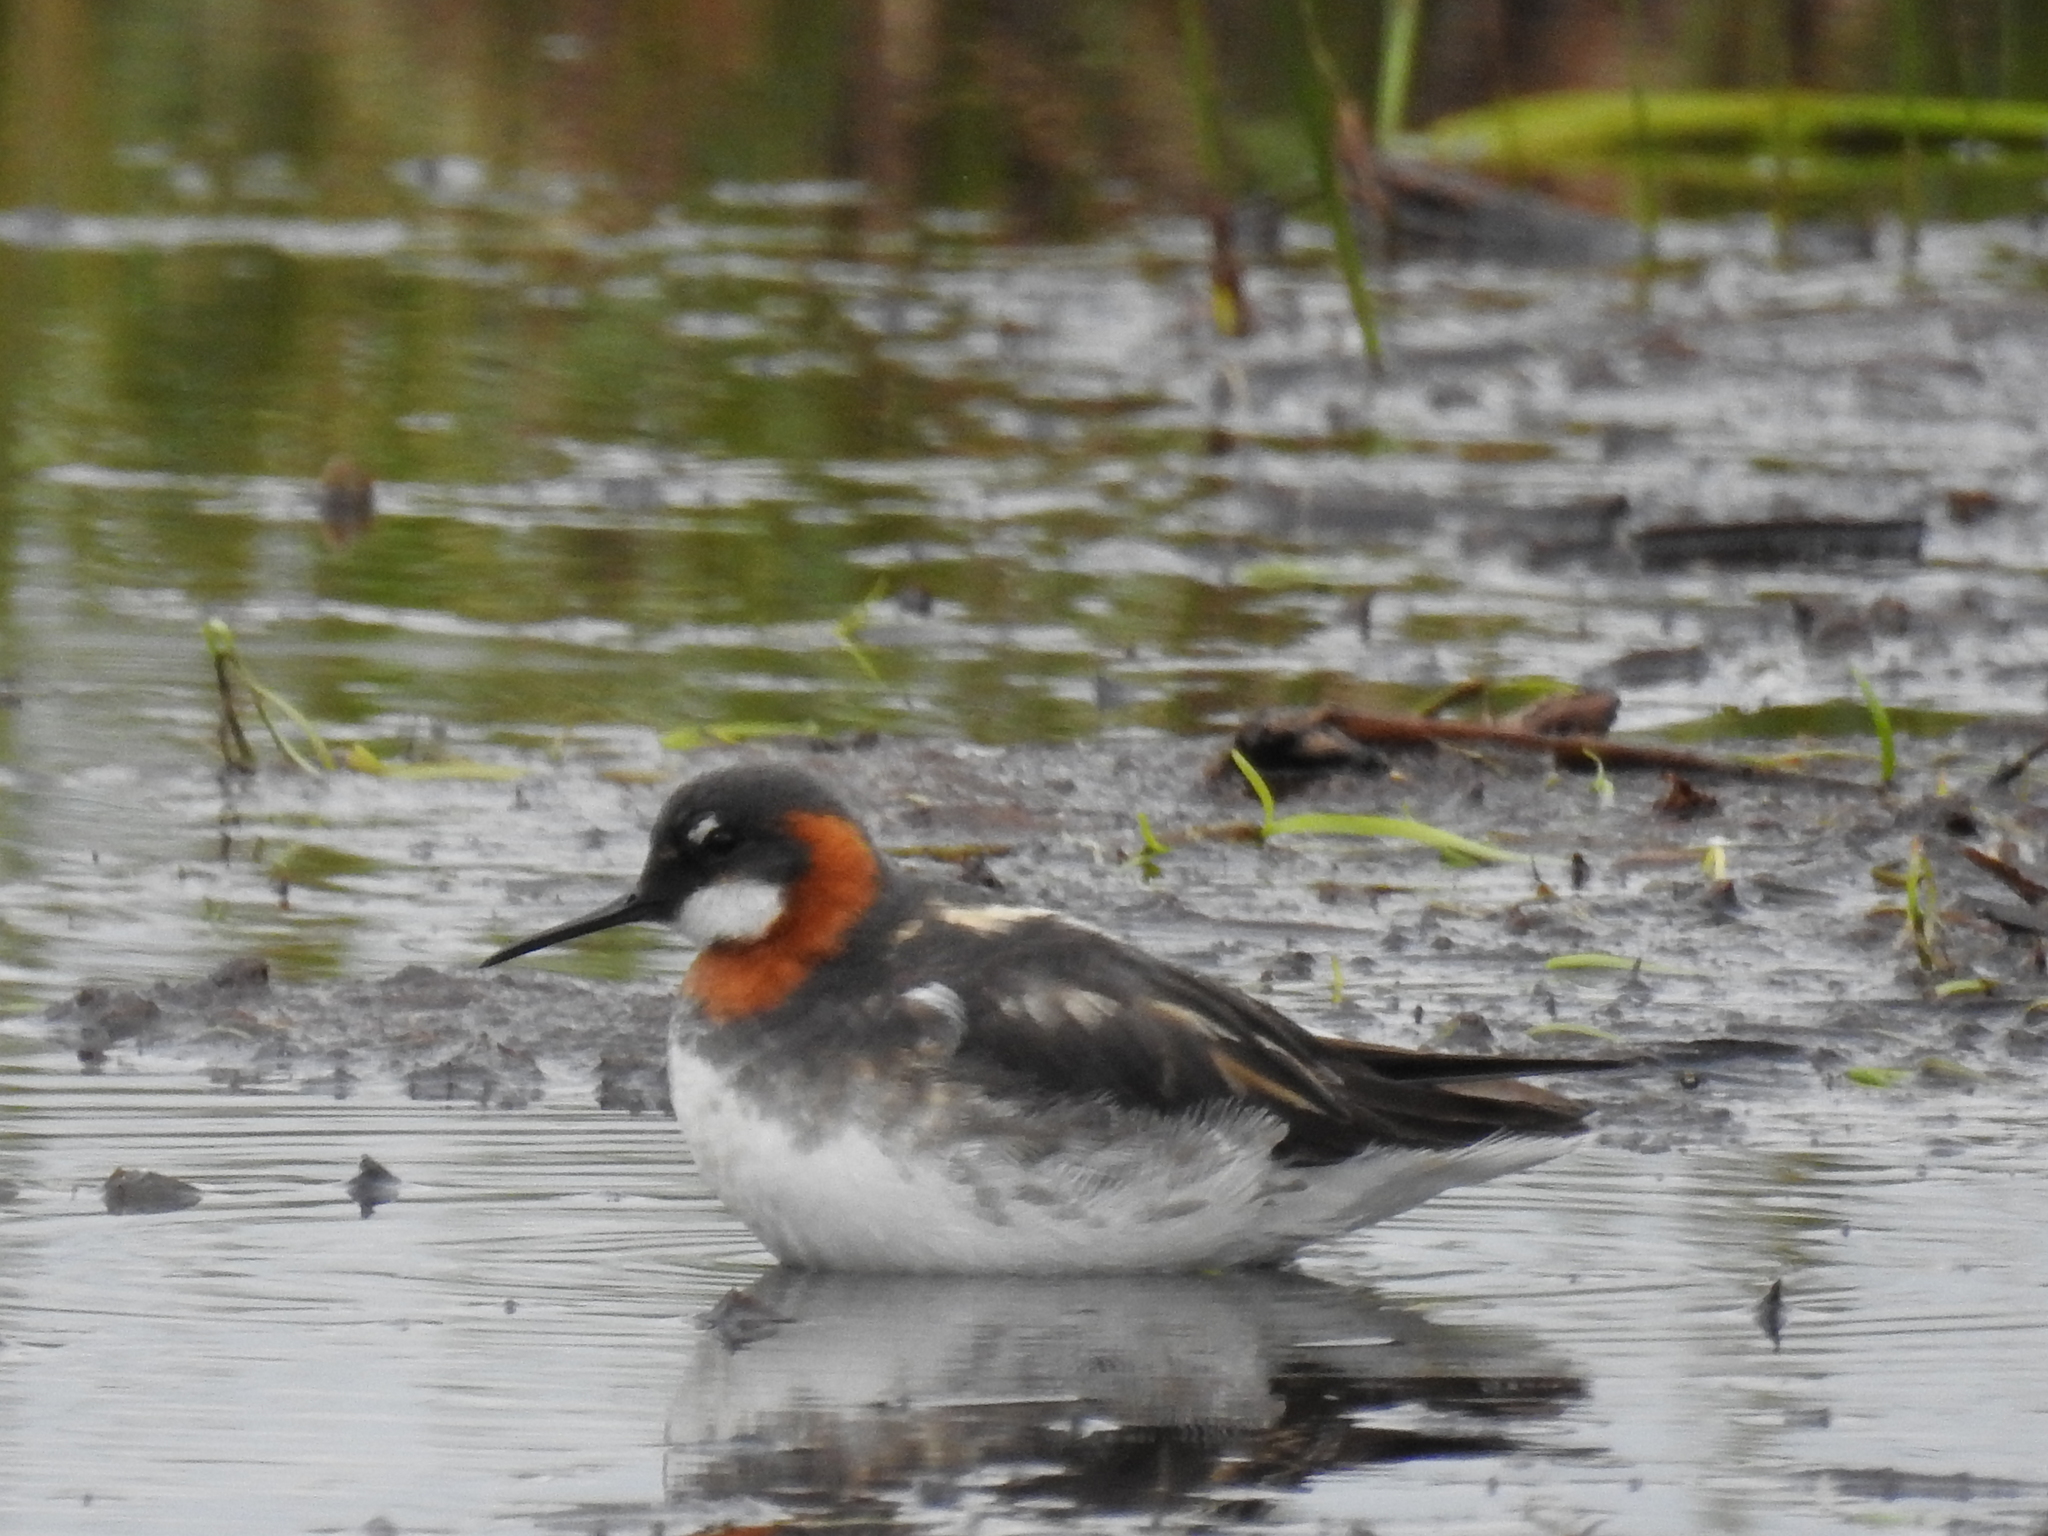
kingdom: Animalia
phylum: Chordata
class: Aves
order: Charadriiformes
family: Scolopacidae
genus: Phalaropus
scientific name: Phalaropus lobatus
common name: Red-necked phalarope
